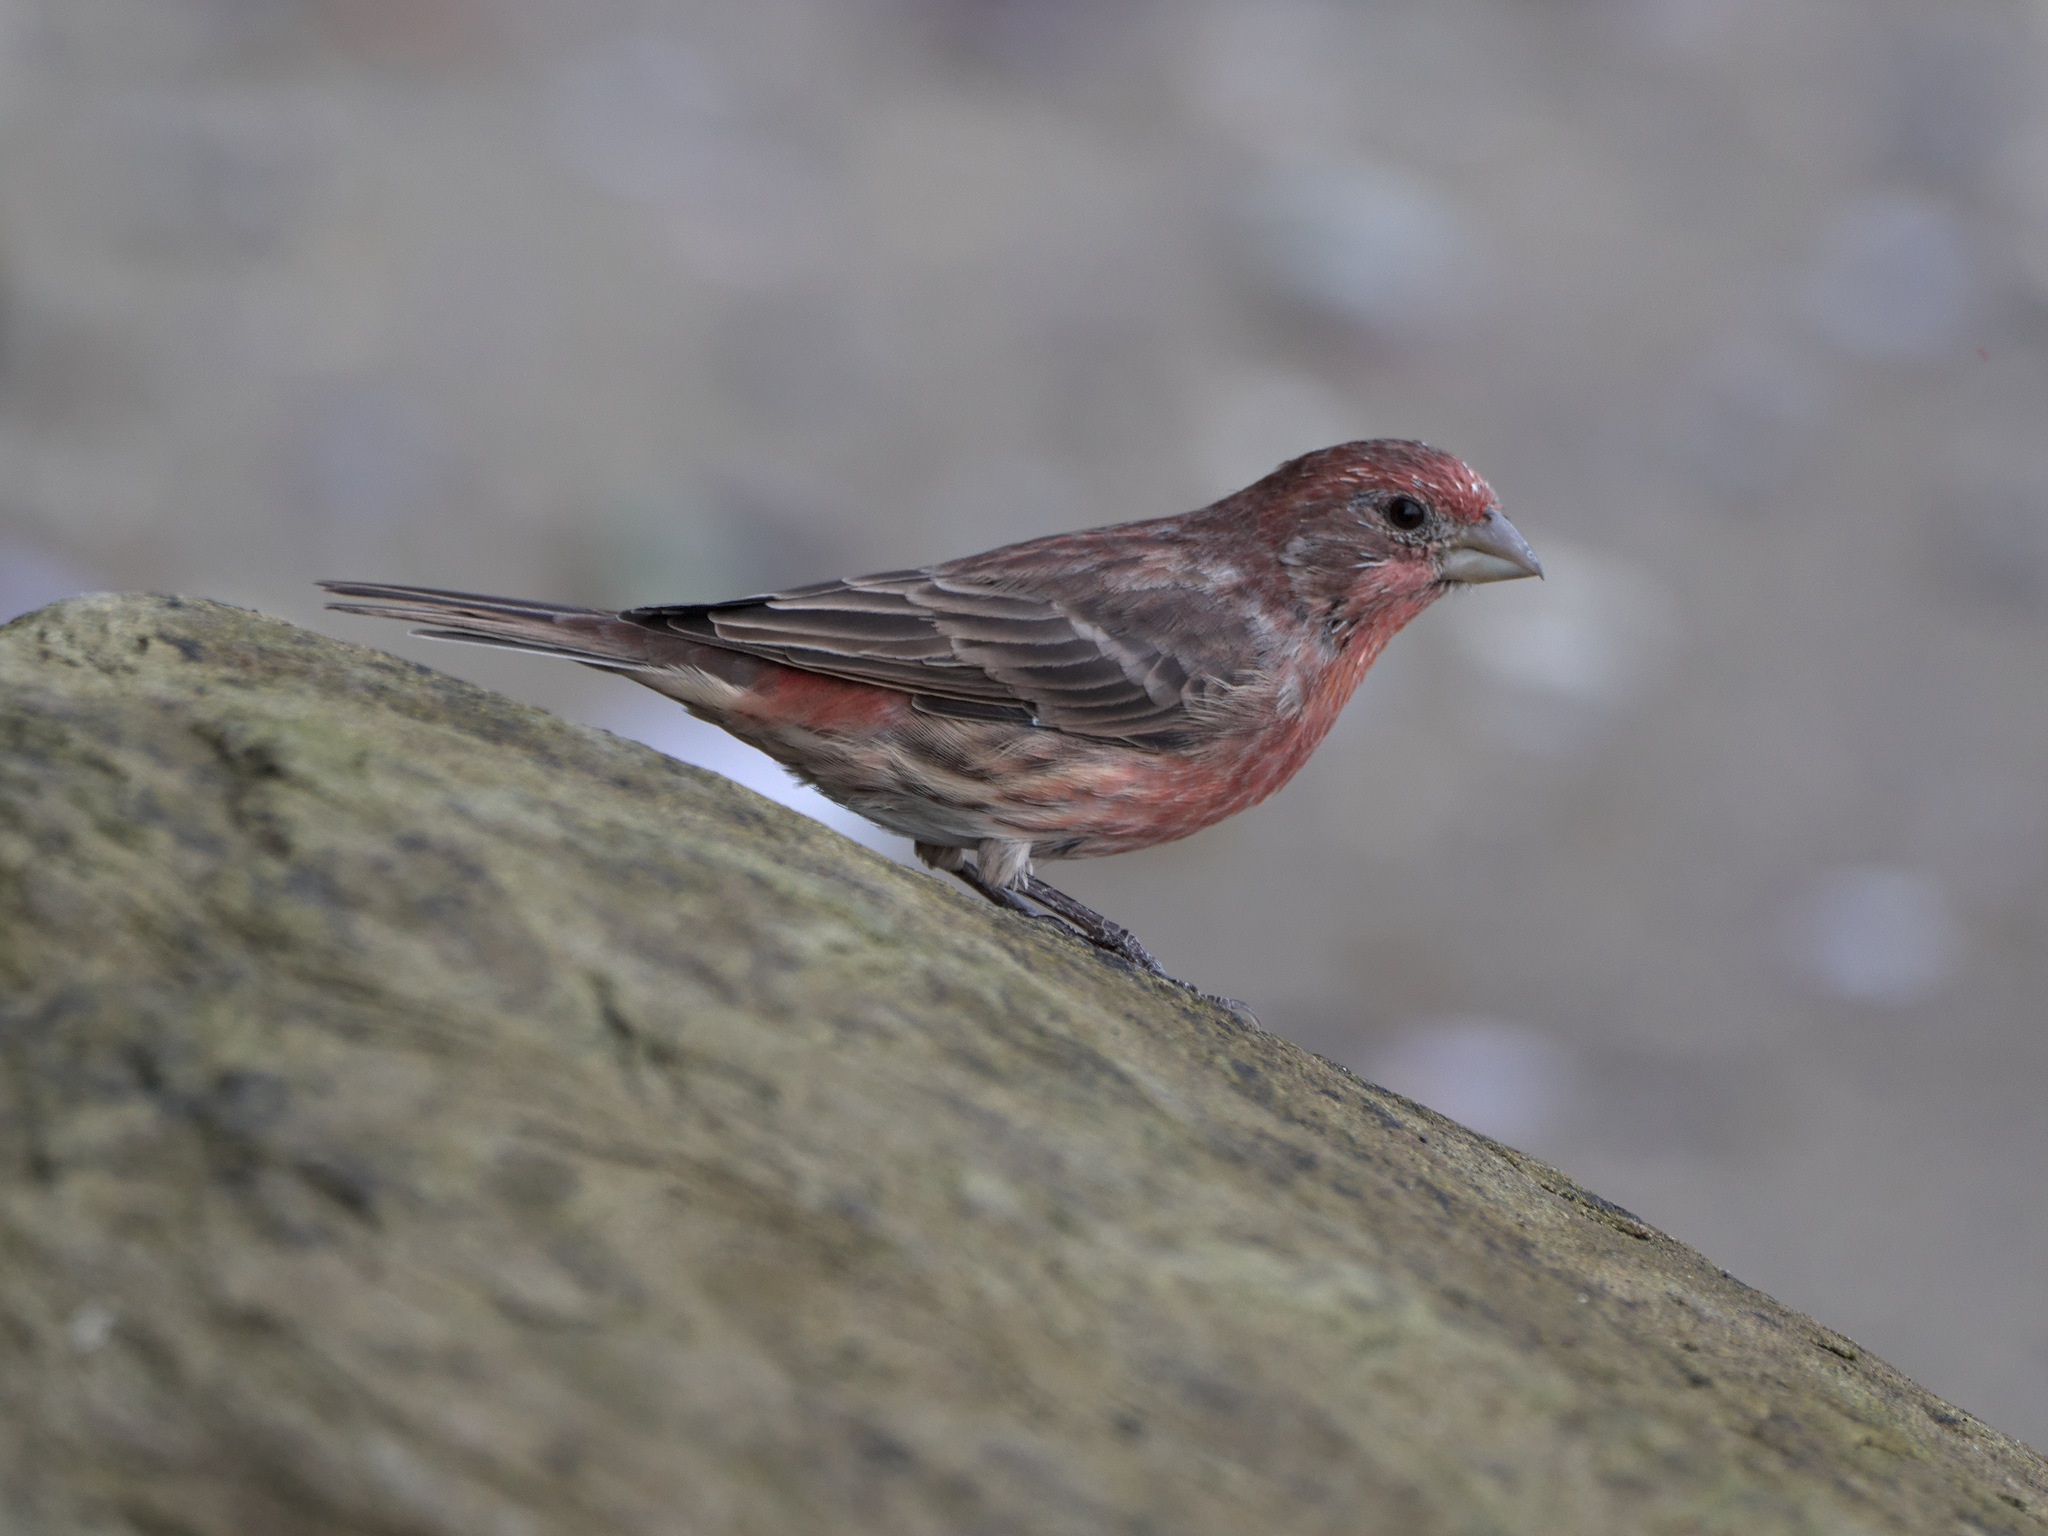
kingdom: Animalia
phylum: Chordata
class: Aves
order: Passeriformes
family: Fringillidae
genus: Haemorhous
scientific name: Haemorhous mexicanus
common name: House finch
